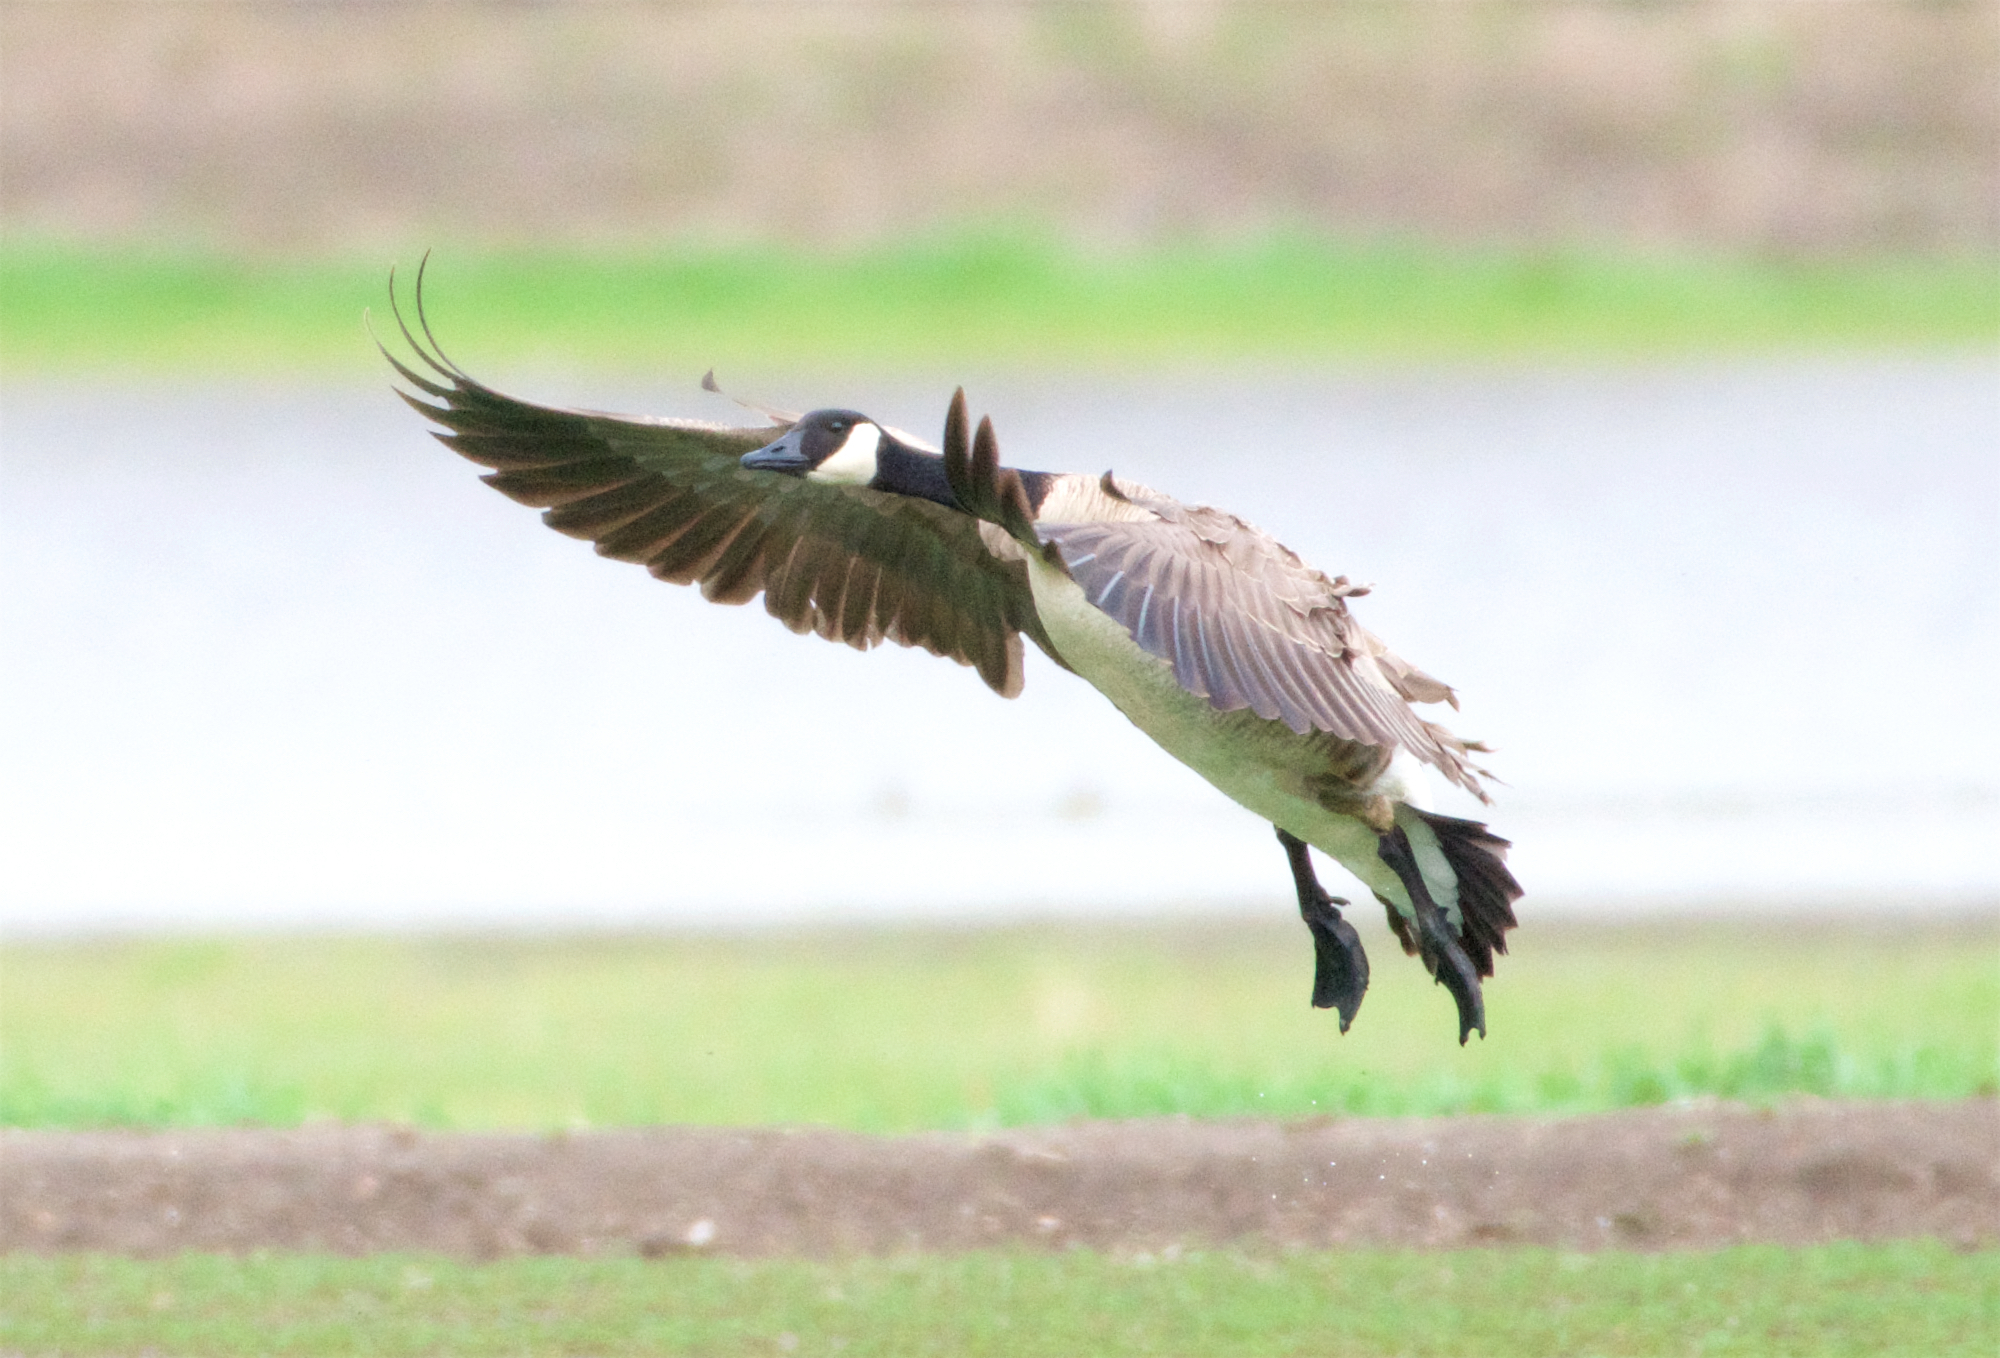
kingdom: Animalia
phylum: Chordata
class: Aves
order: Anseriformes
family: Anatidae
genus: Branta
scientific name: Branta canadensis
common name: Canada goose
